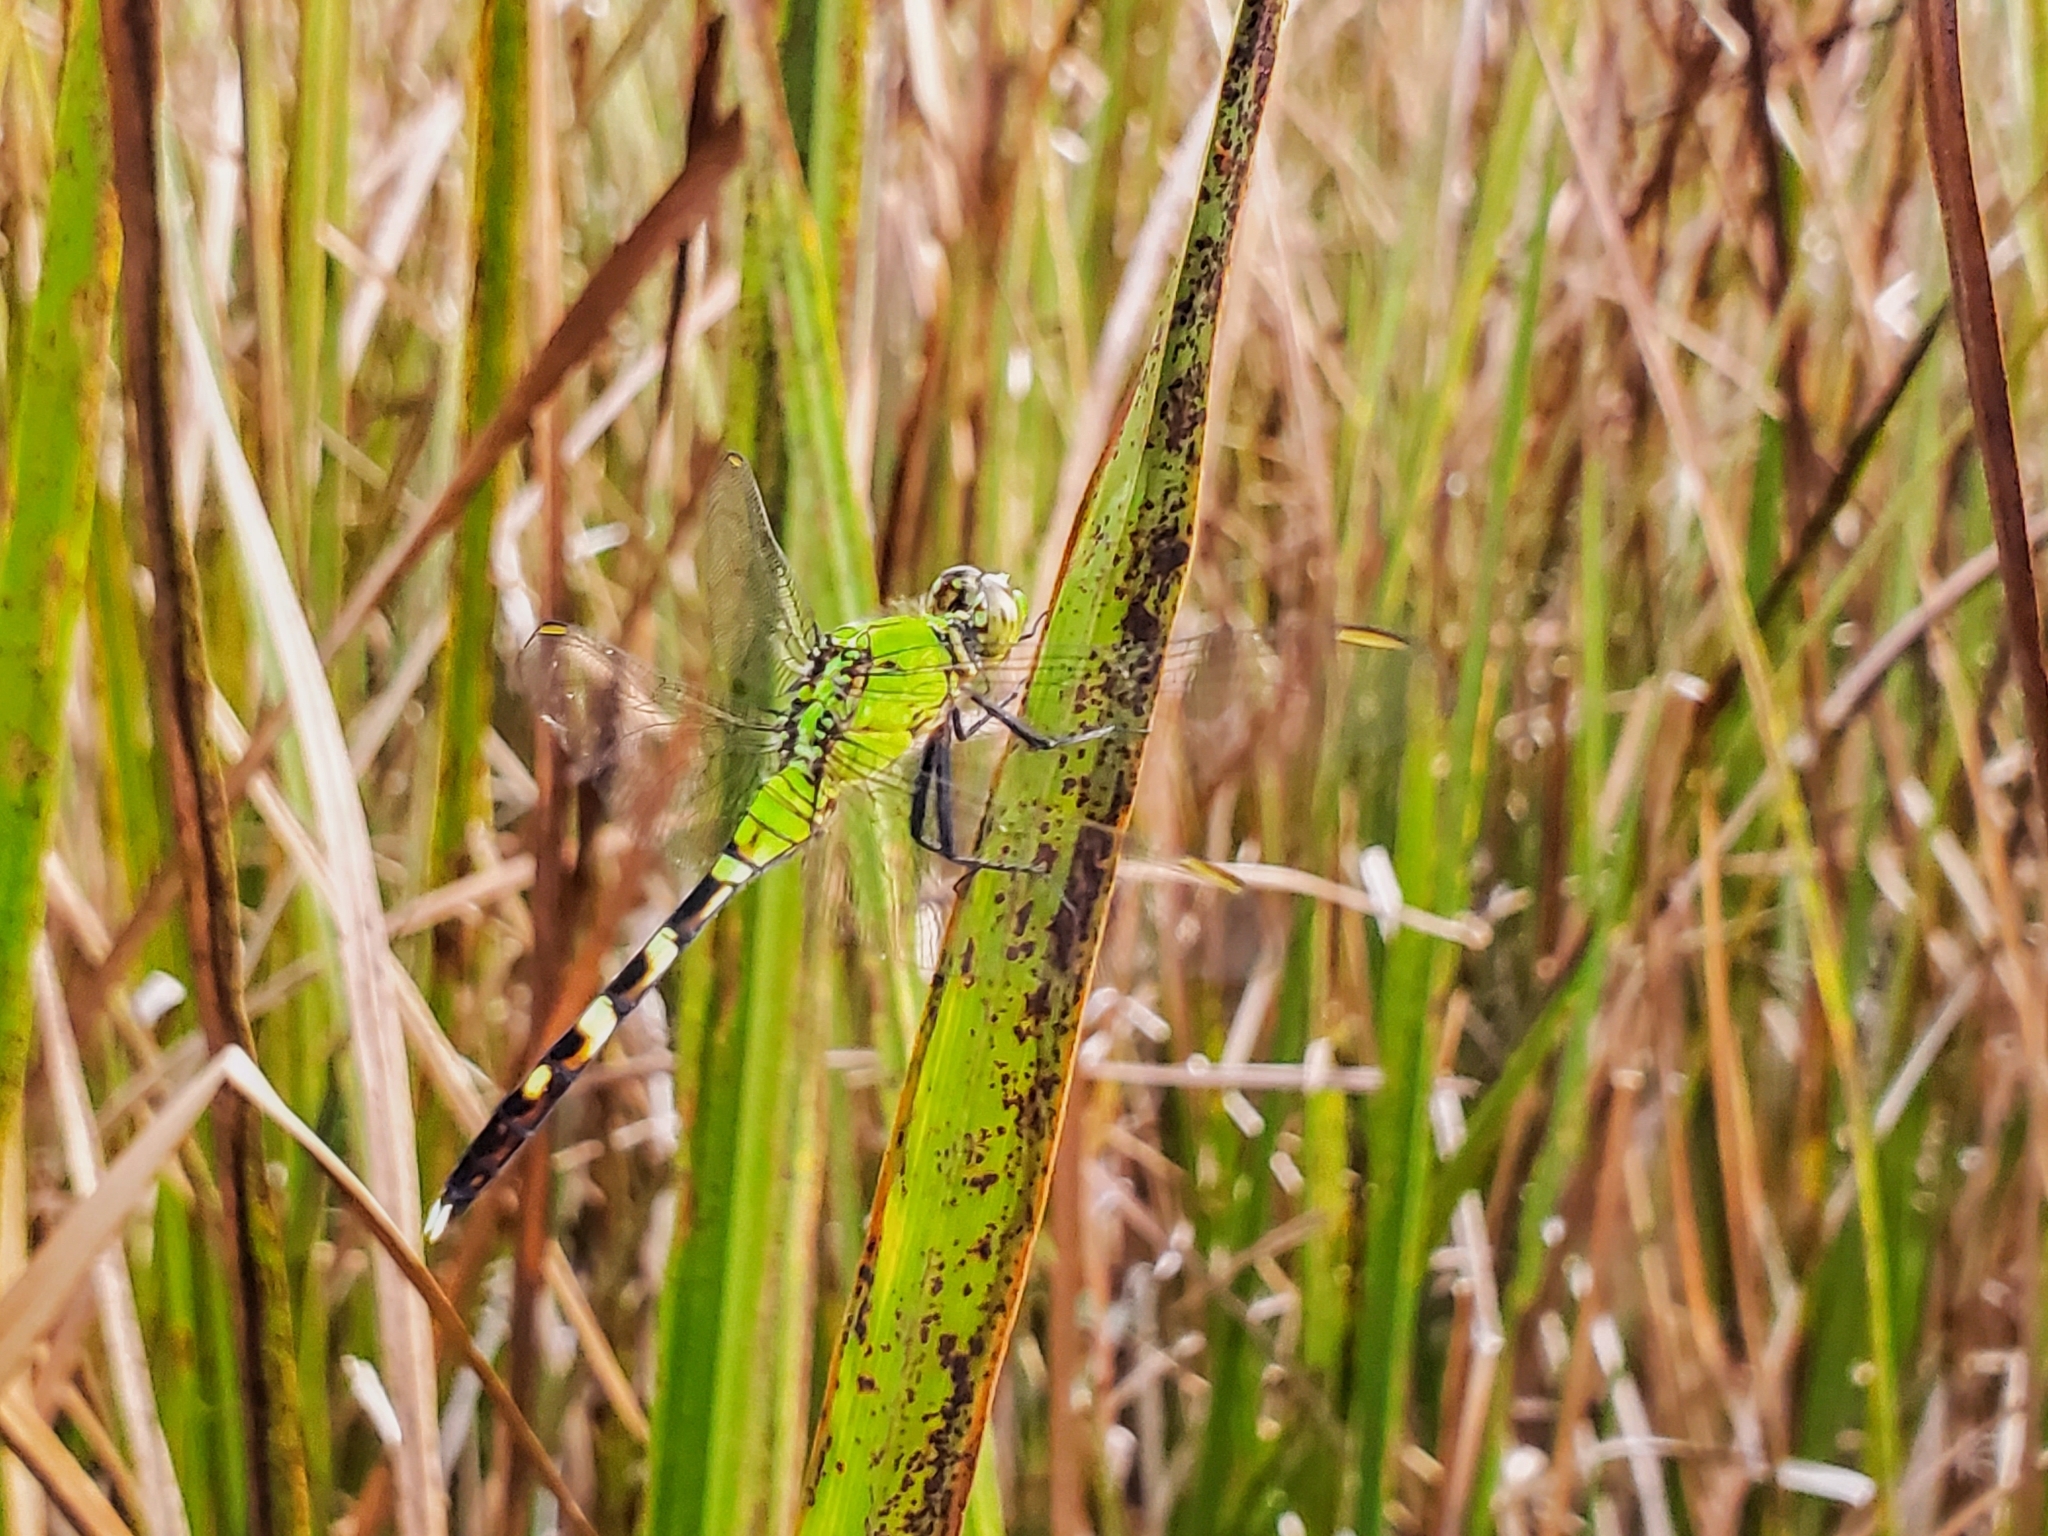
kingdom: Animalia
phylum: Arthropoda
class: Insecta
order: Odonata
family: Libellulidae
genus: Erythemis
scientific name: Erythemis simplicicollis
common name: Eastern pondhawk
